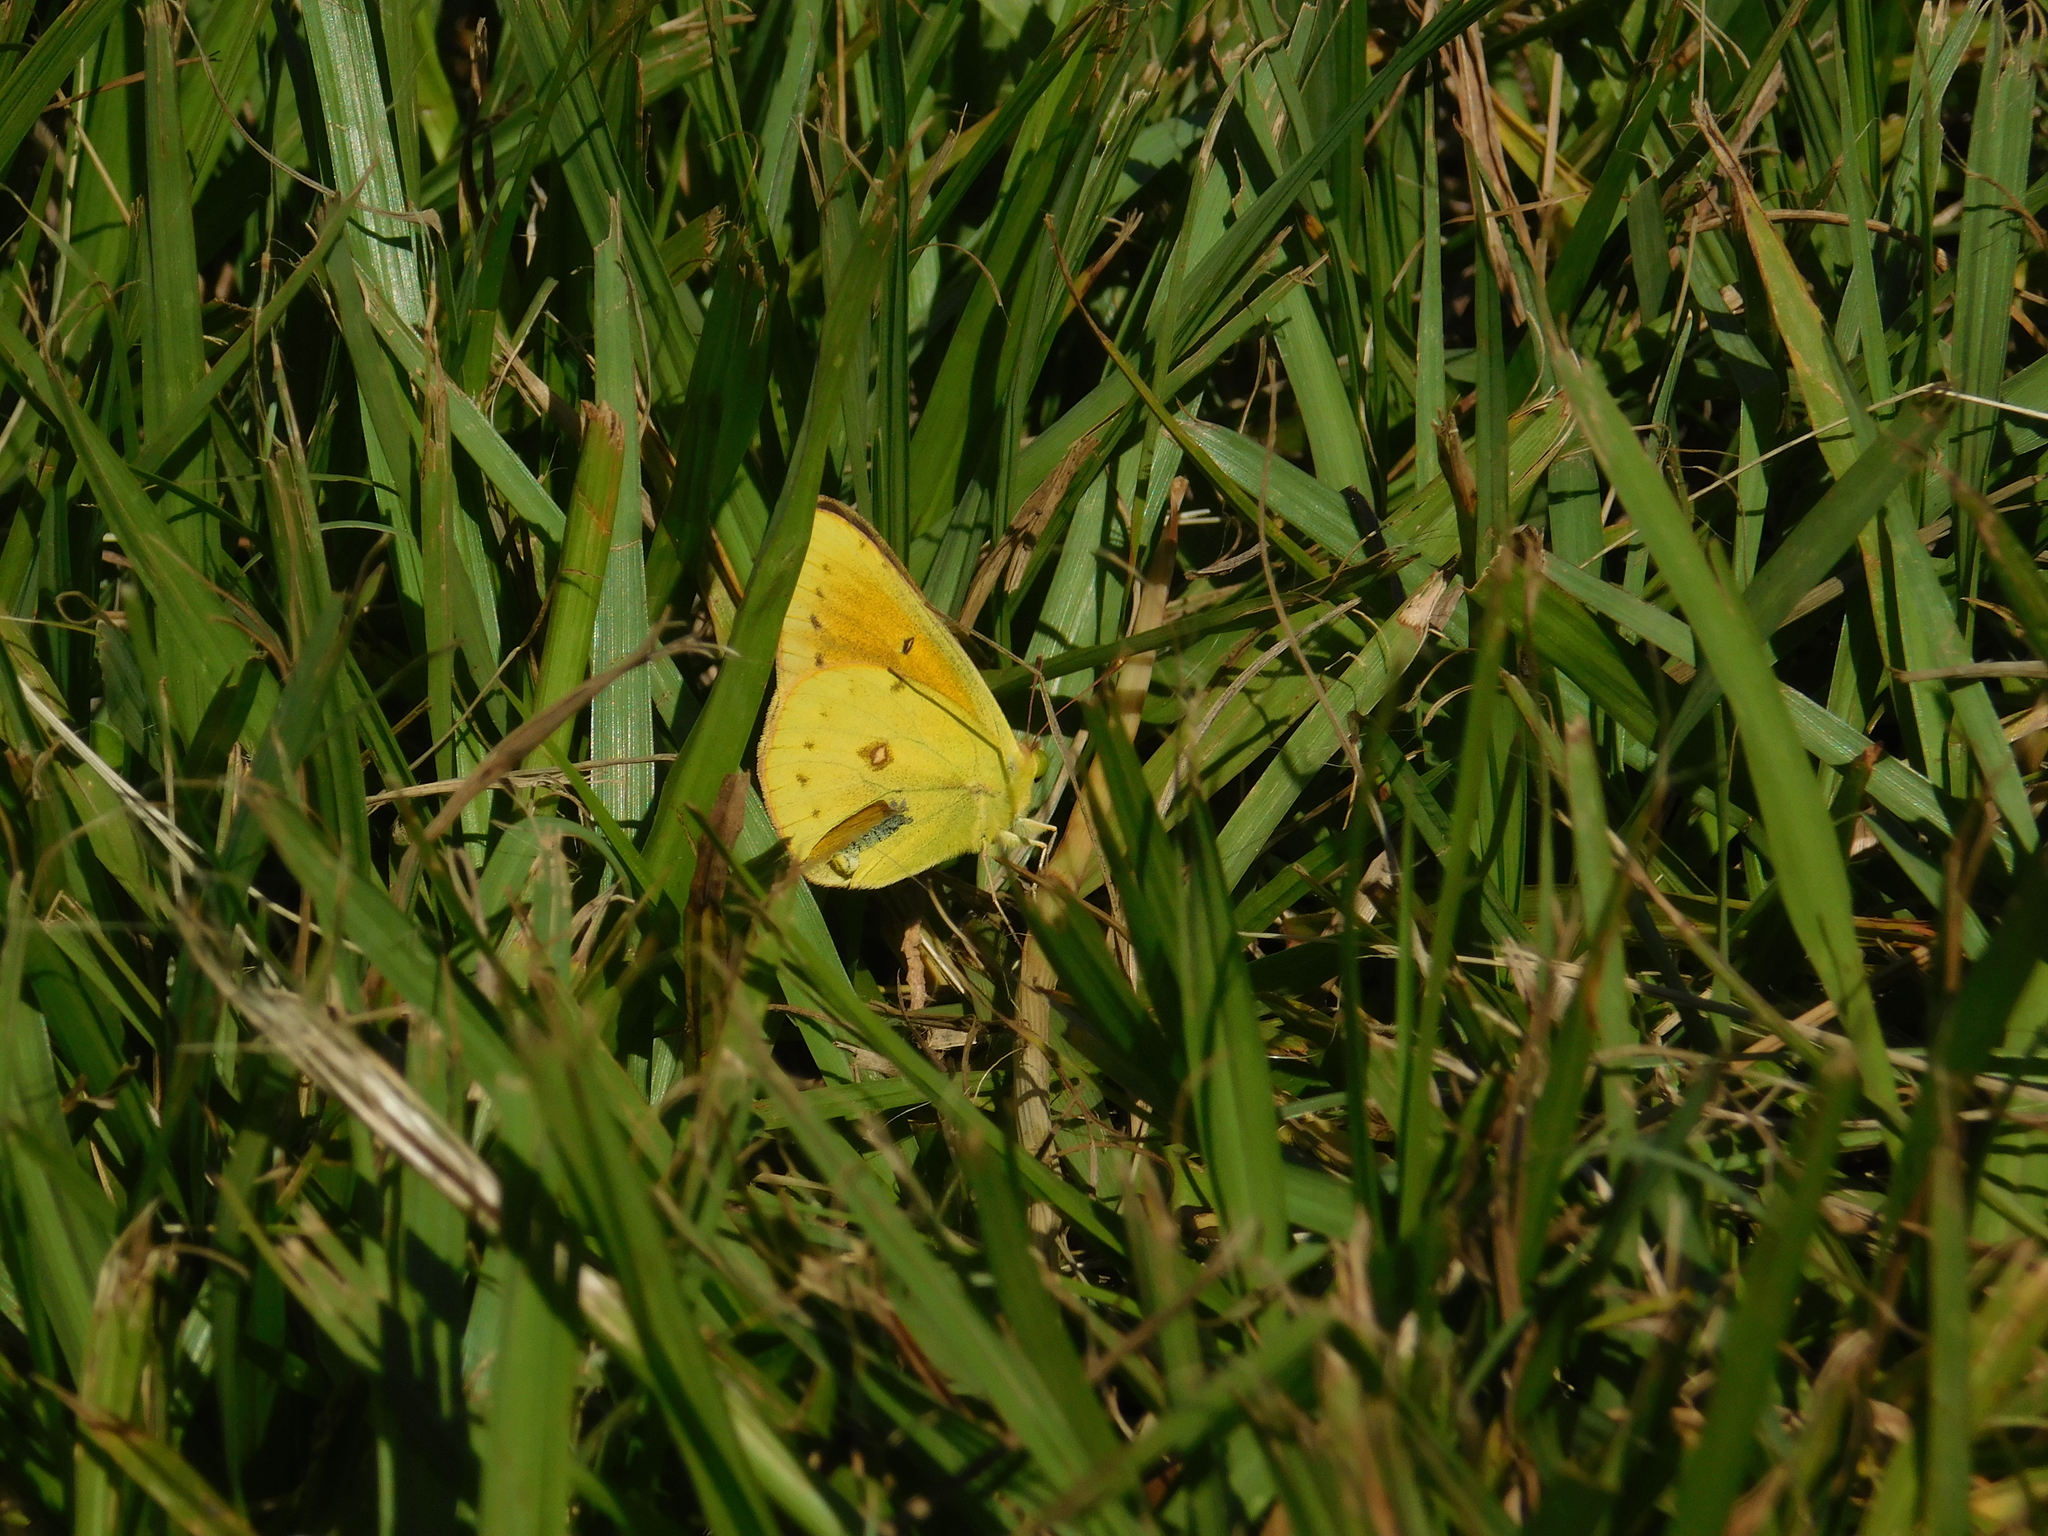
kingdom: Animalia
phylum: Arthropoda
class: Insecta
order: Lepidoptera
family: Pieridae
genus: Colias
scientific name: Colias lesbia
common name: Lesbia clouded yellow
